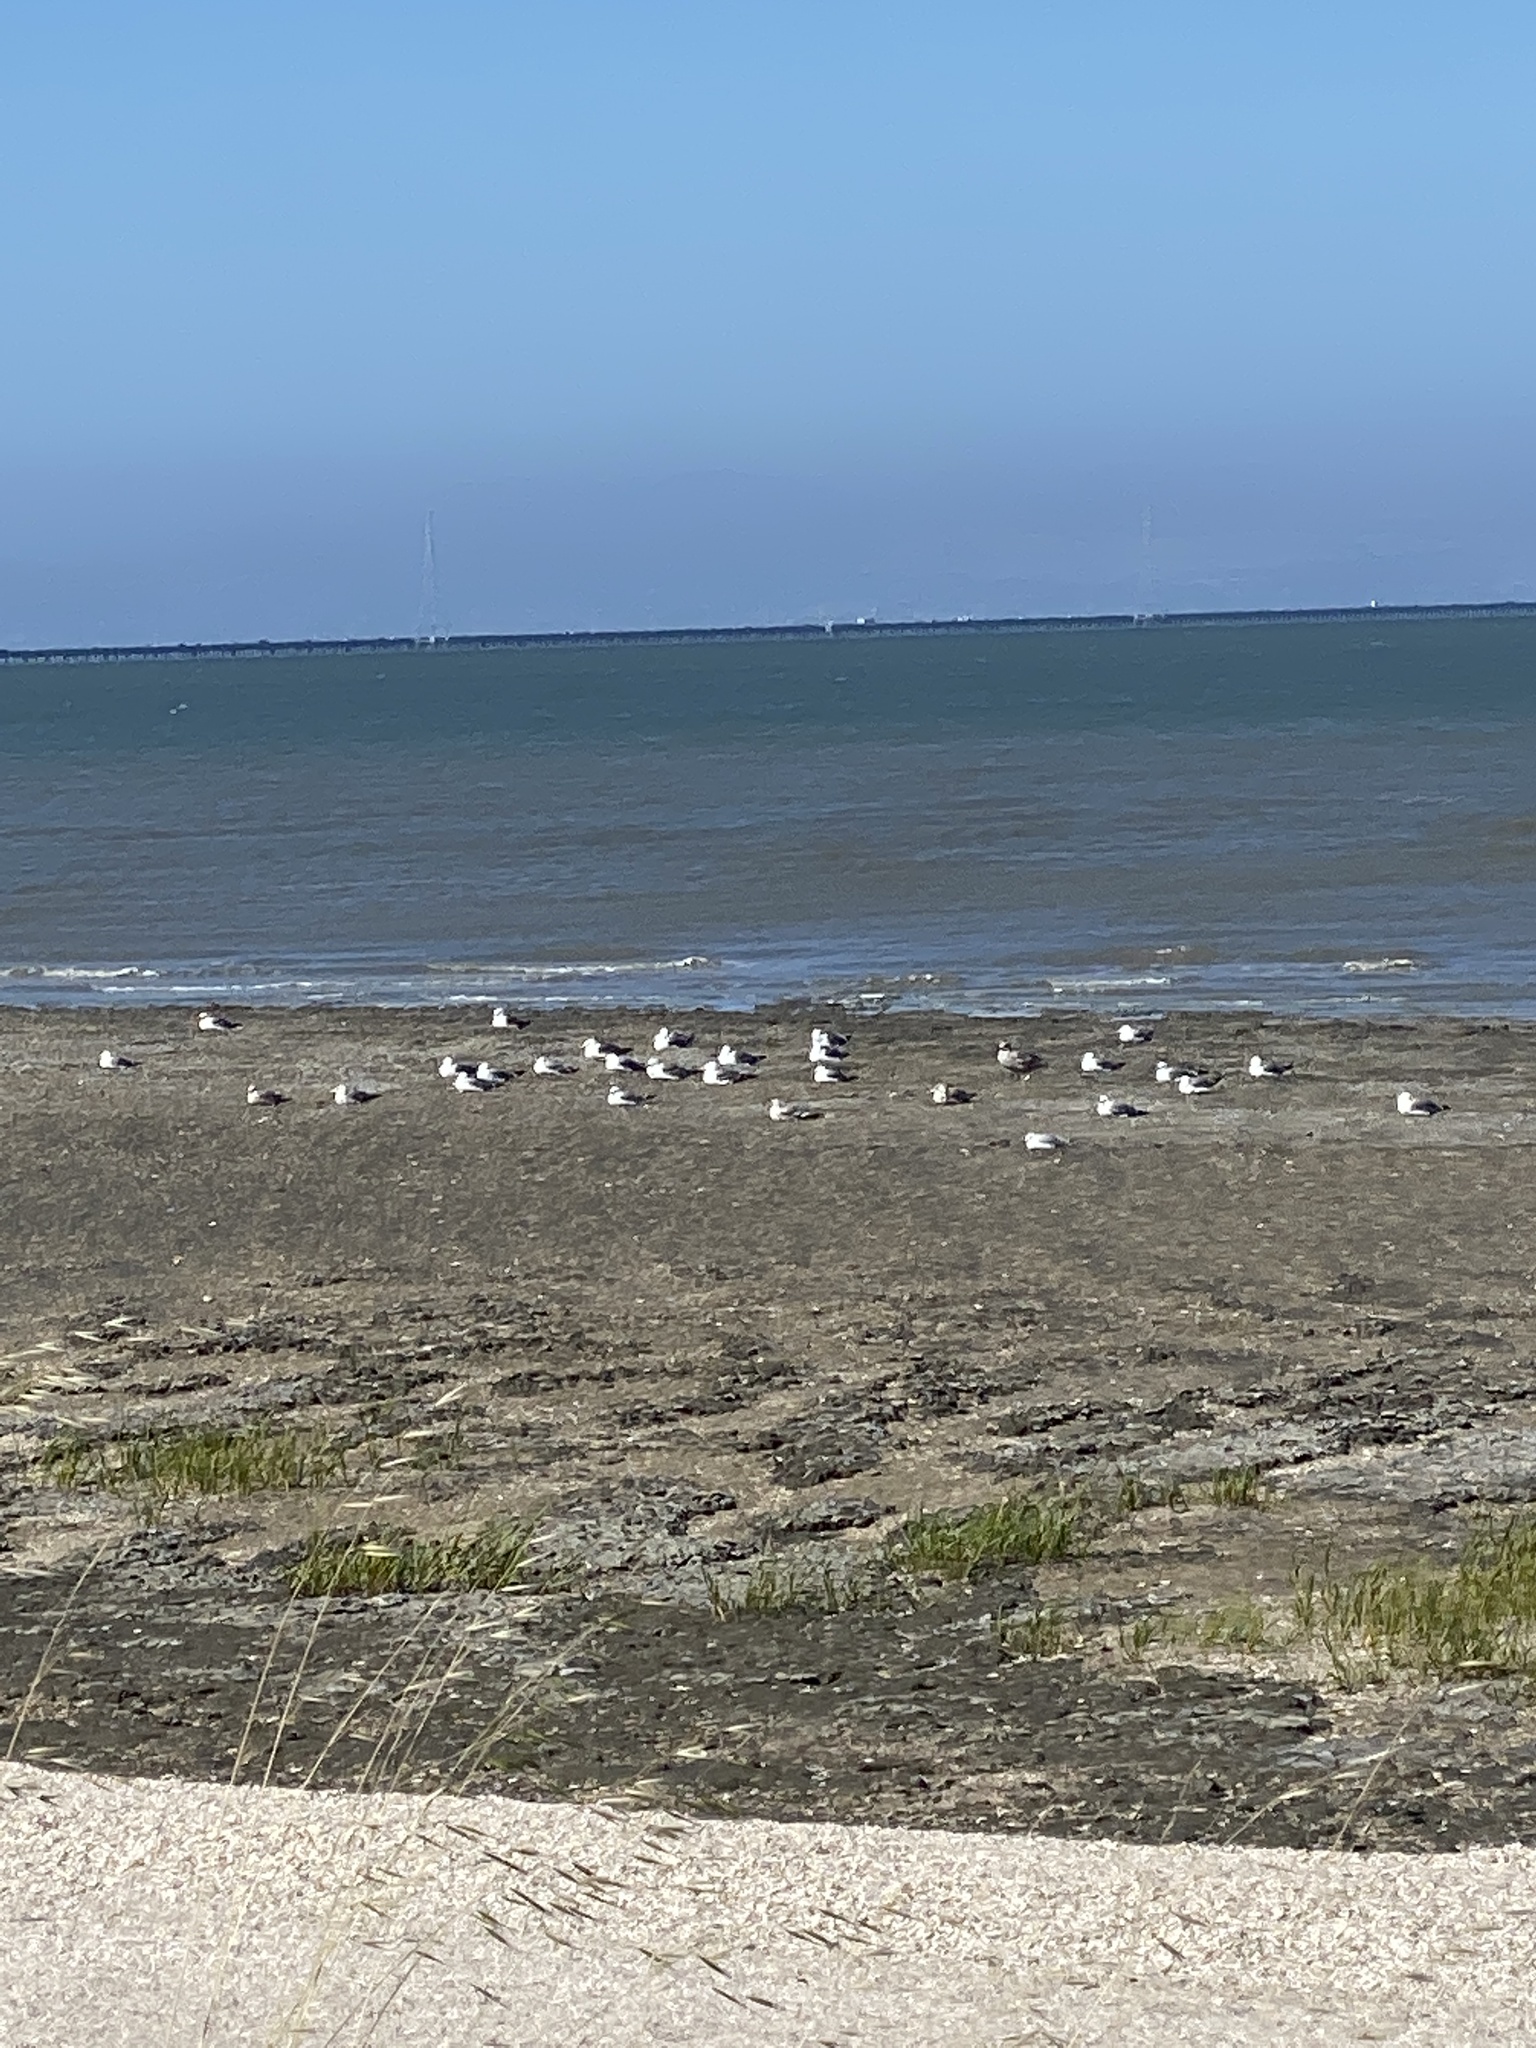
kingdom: Animalia
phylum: Chordata
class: Aves
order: Charadriiformes
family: Laridae
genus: Larus
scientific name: Larus occidentalis
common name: Western gull
